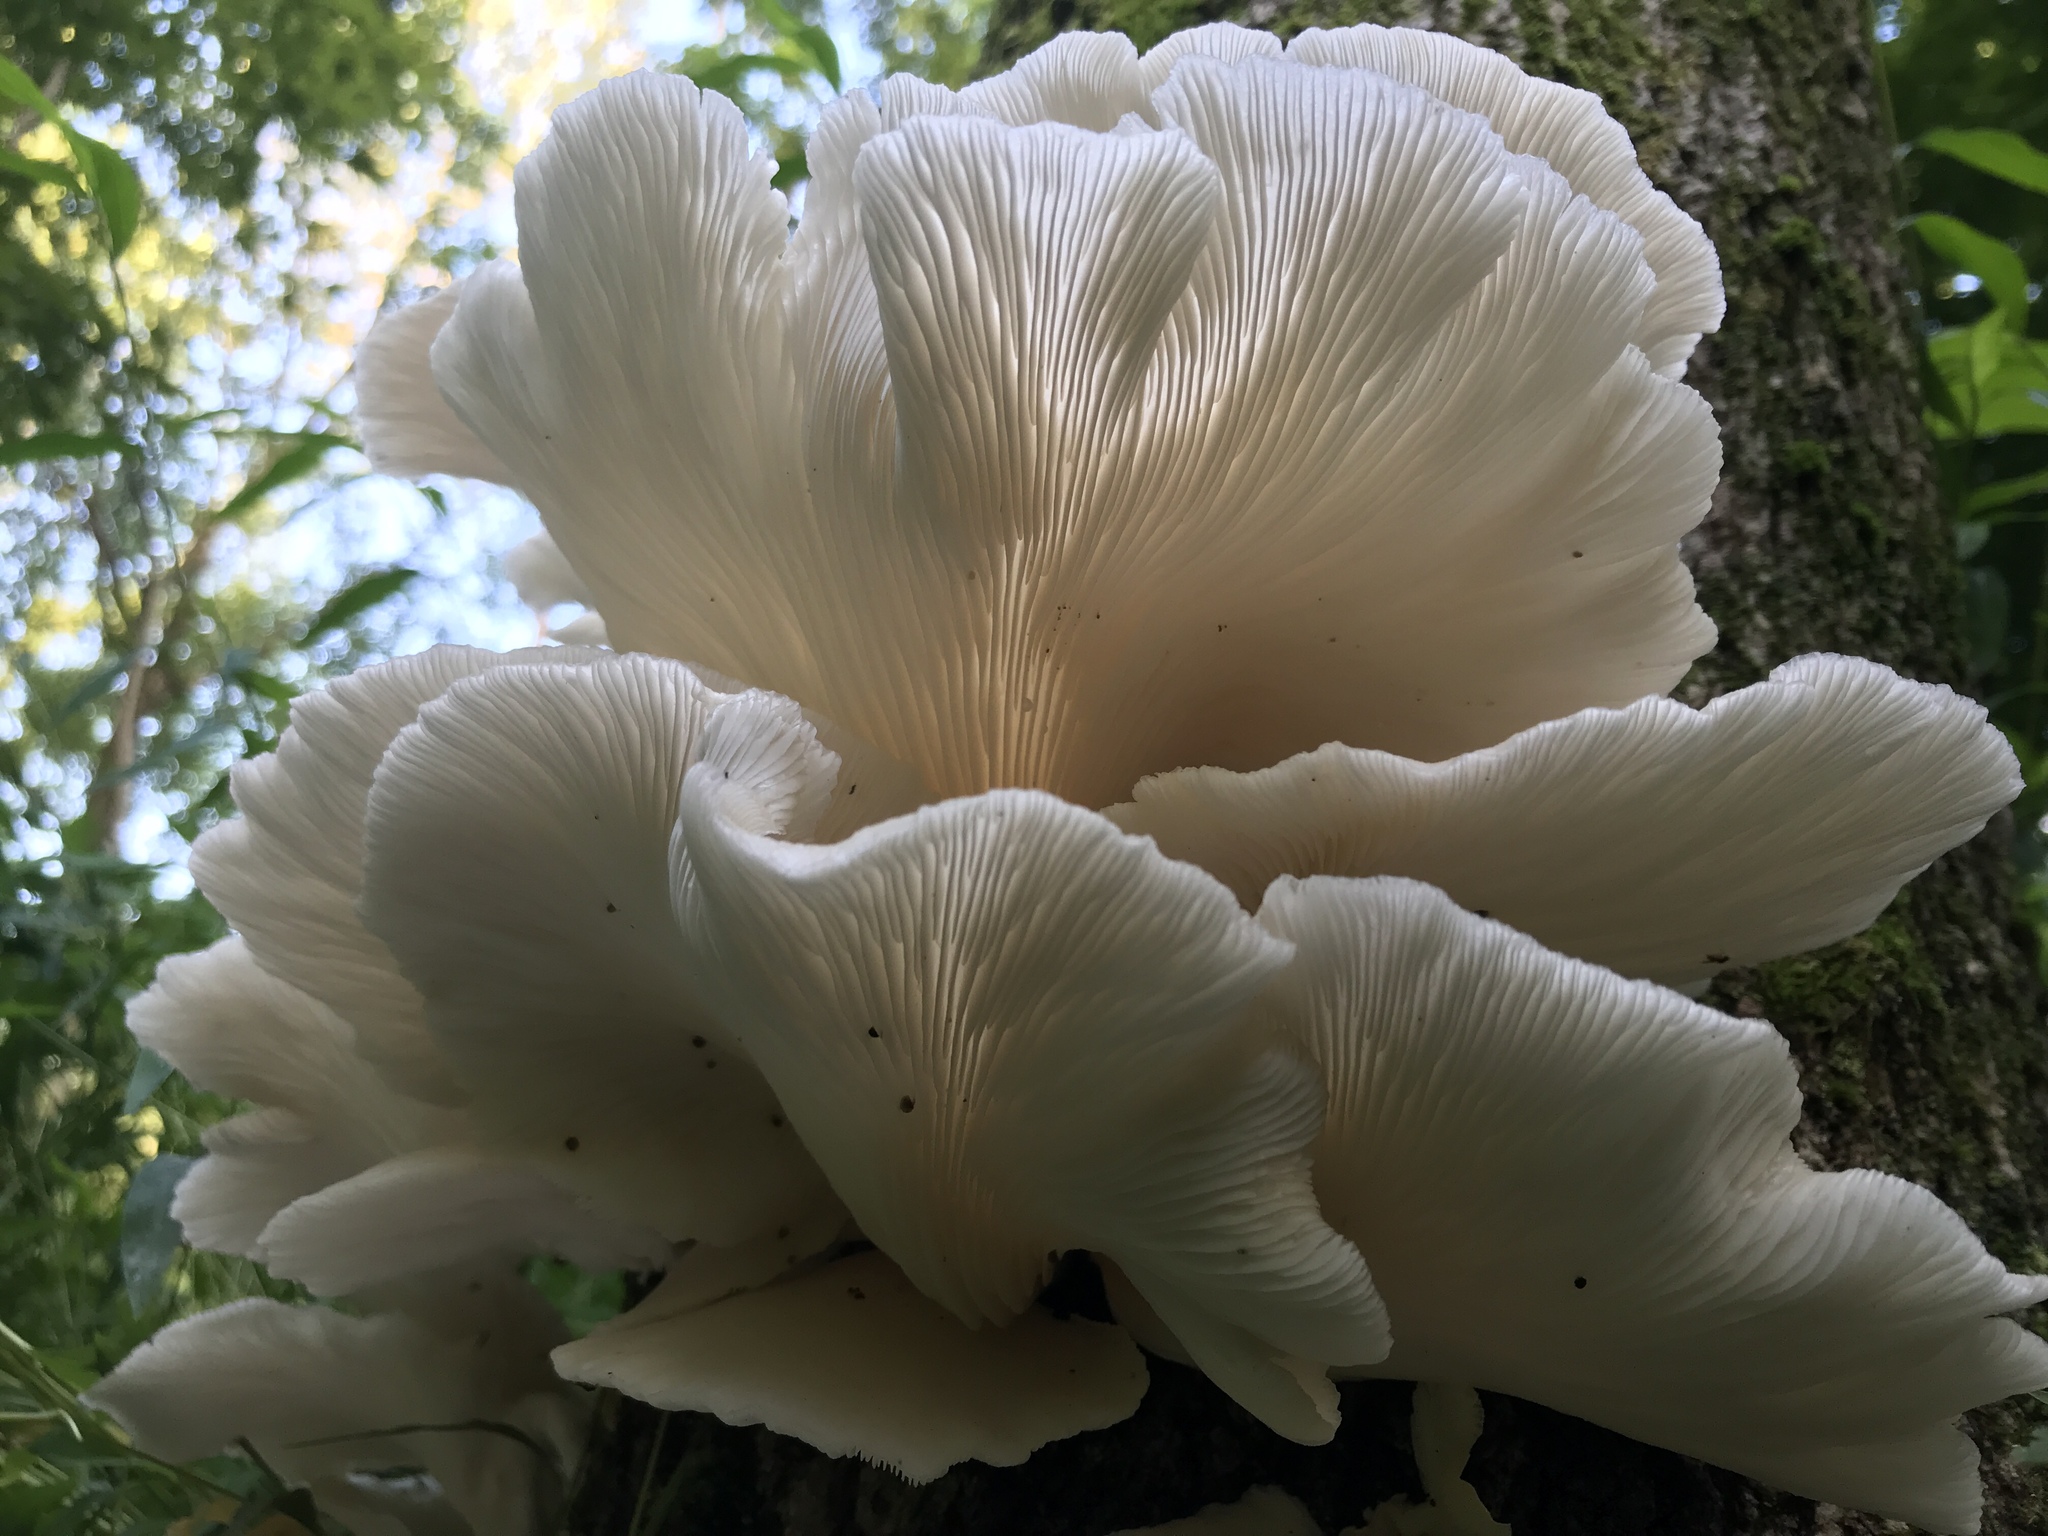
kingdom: Fungi
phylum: Basidiomycota
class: Agaricomycetes
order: Agaricales
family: Pleurotaceae
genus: Pleurotus
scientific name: Pleurotus pulmonarius
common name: Pale oyster
